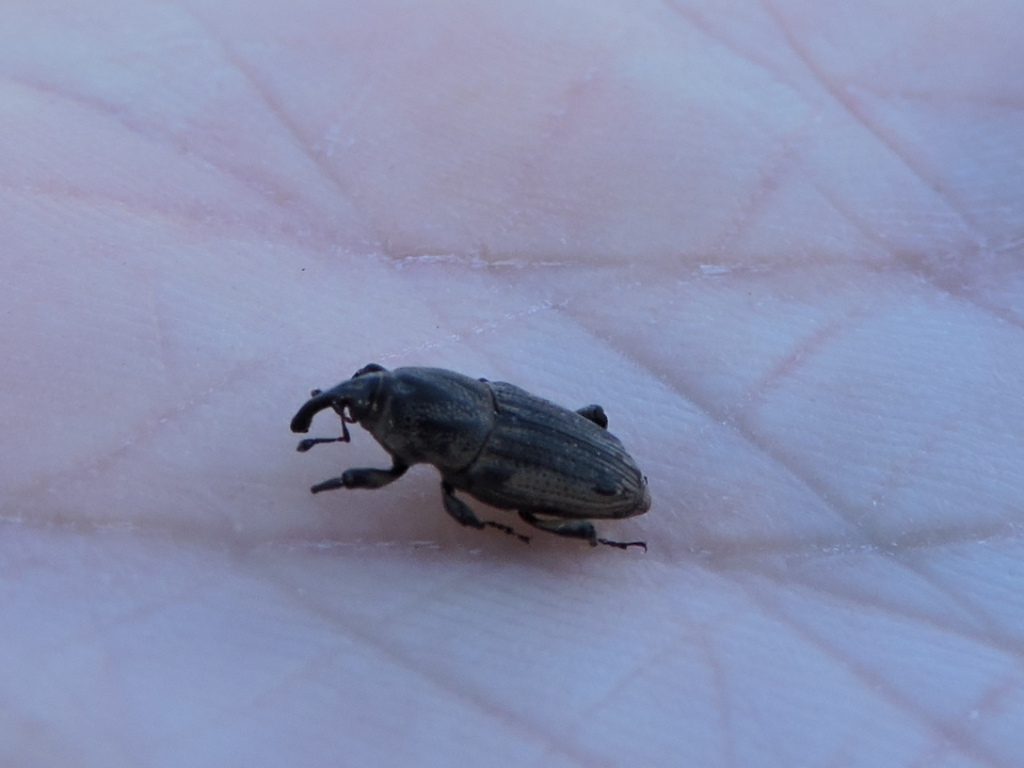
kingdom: Animalia
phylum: Arthropoda
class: Insecta
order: Coleoptera
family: Dryophthoridae
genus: Sphenophorus
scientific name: Sphenophorus venatus
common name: Hunting billbug
